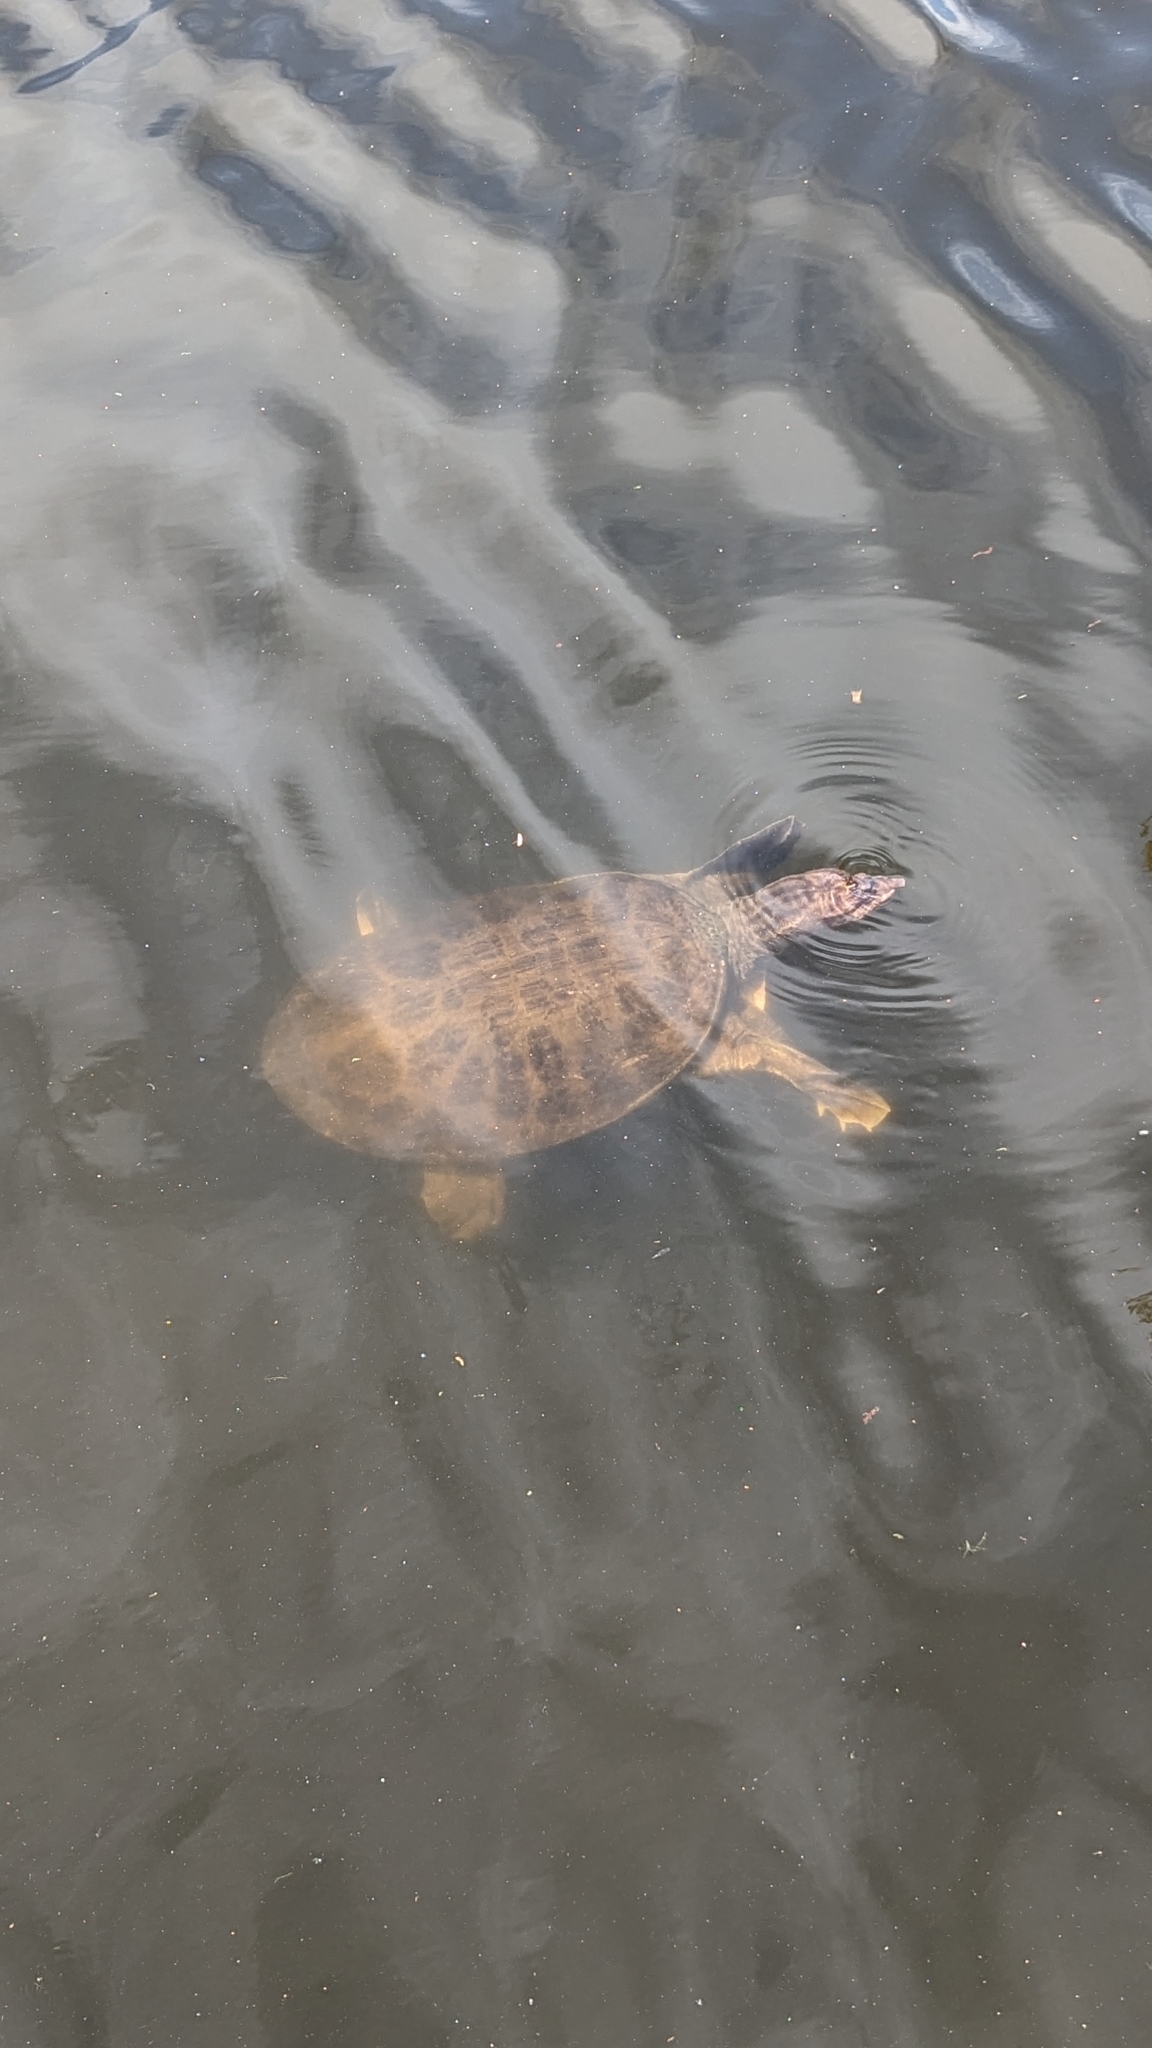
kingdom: Animalia
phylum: Chordata
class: Testudines
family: Trionychidae
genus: Apalone
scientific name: Apalone ferox
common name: Florida softshell turtle
